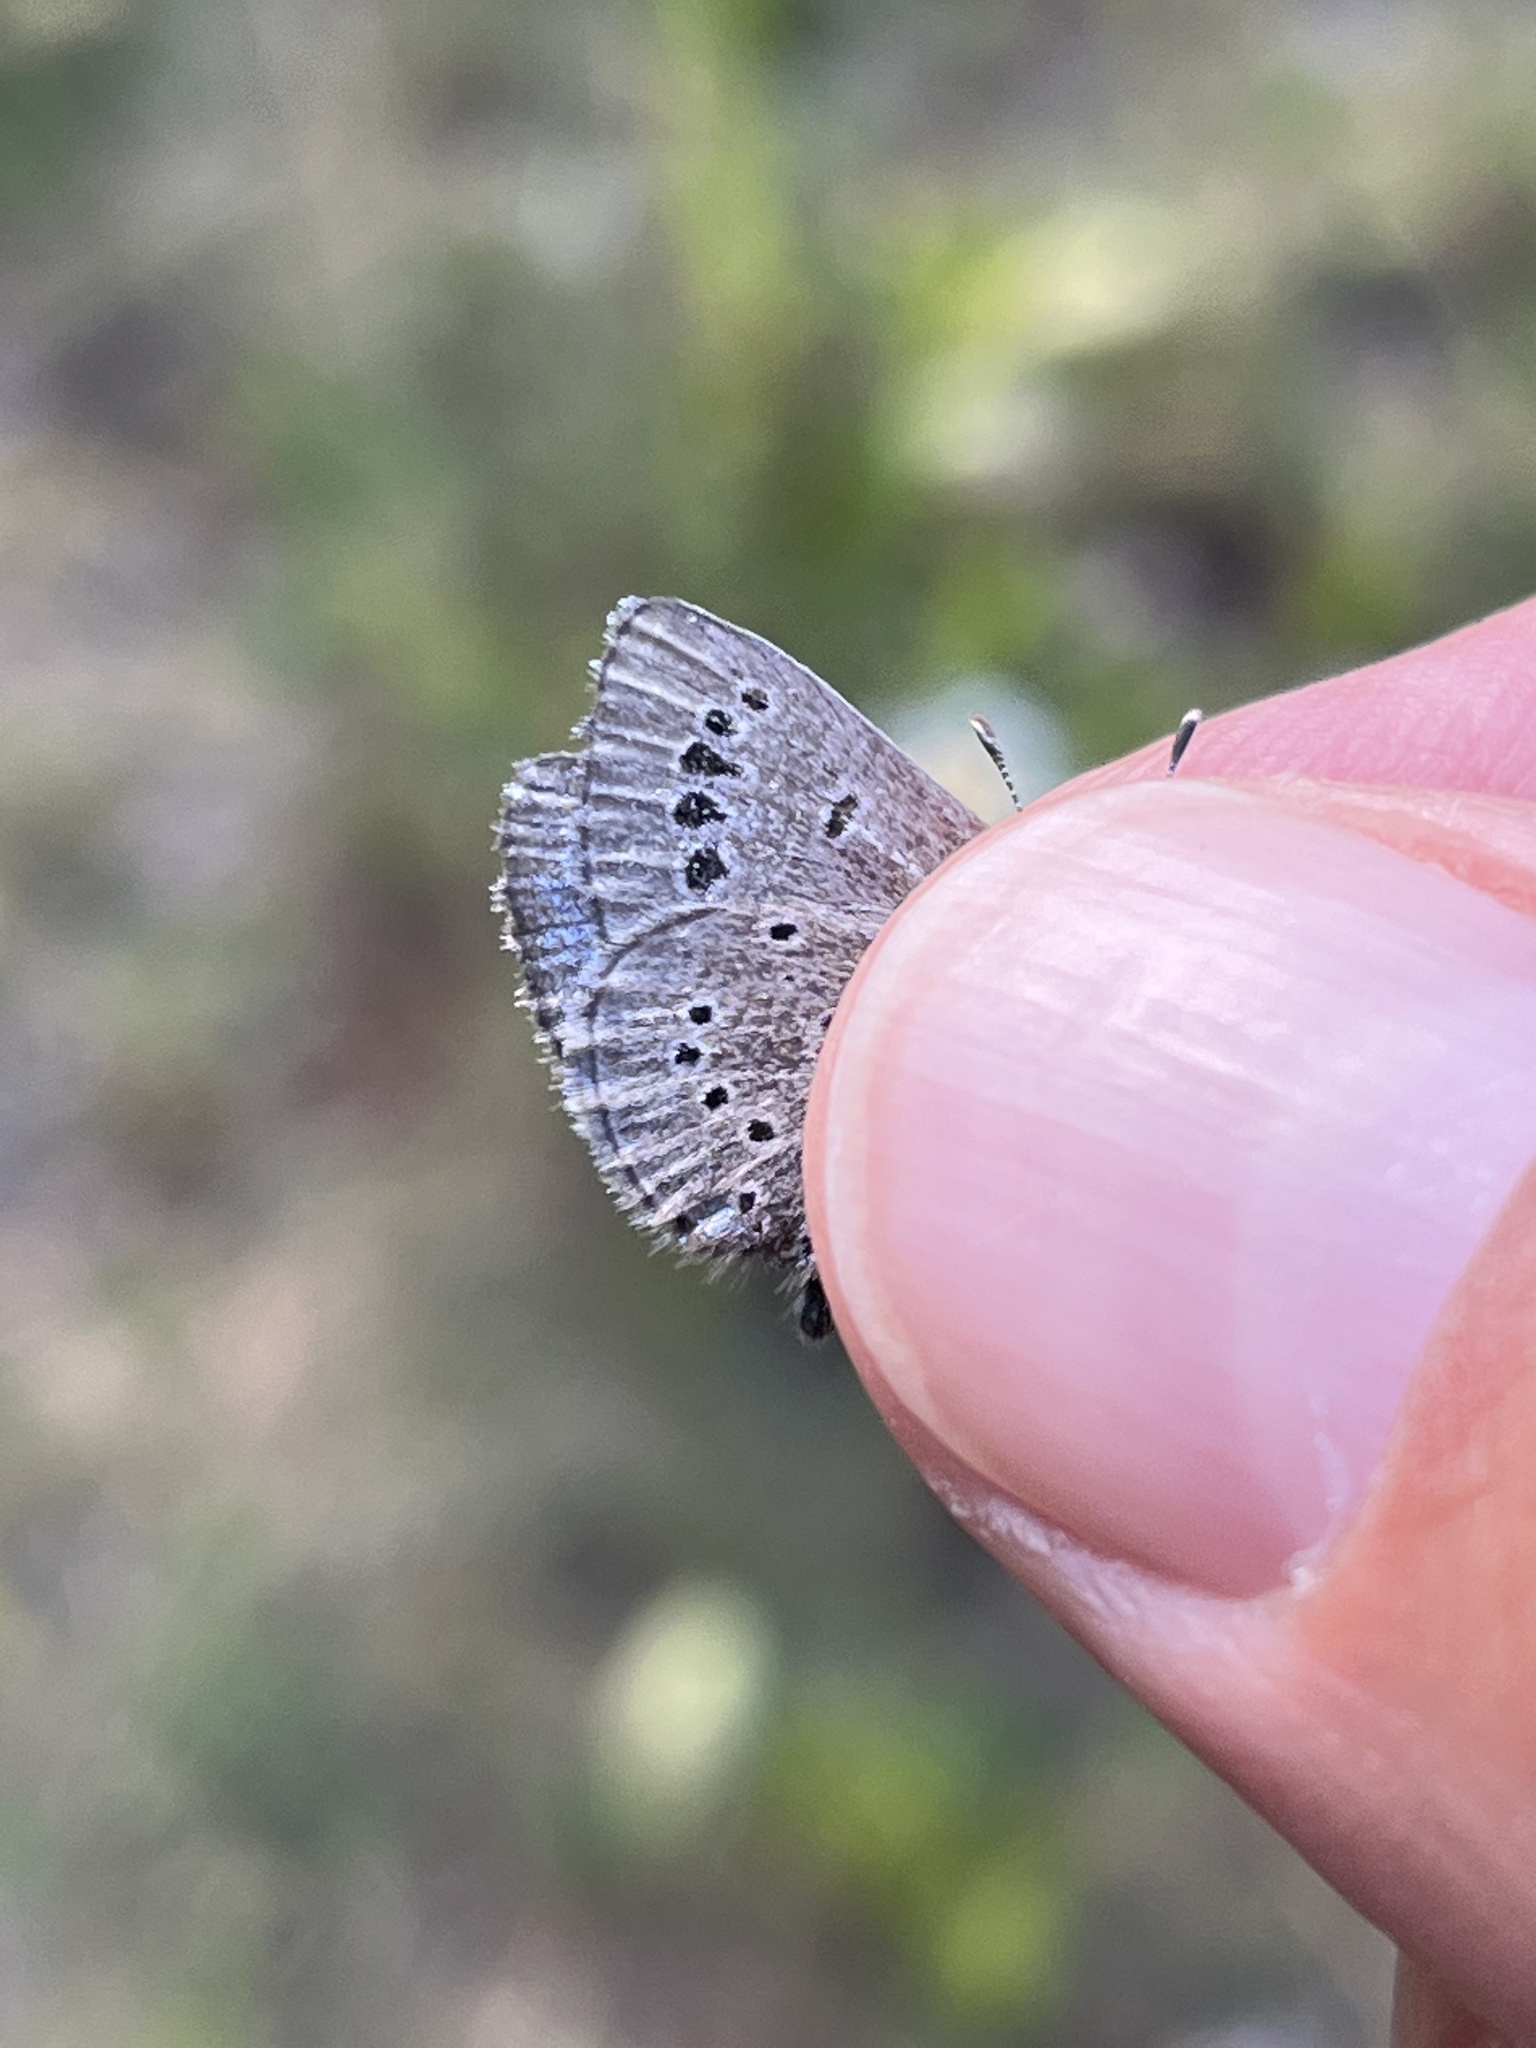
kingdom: Animalia
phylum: Arthropoda
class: Insecta
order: Lepidoptera
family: Lycaenidae
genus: Glaucopsyche
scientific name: Glaucopsyche lygdamus
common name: Silvery blue
